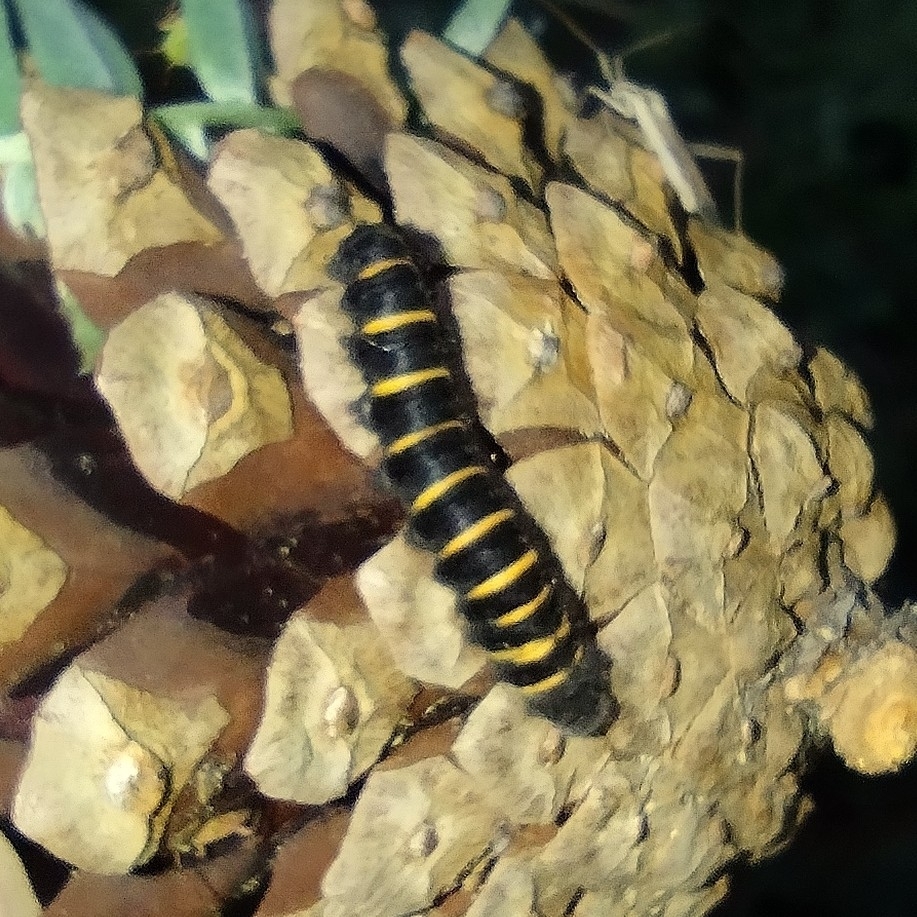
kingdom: Animalia
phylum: Arthropoda
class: Insecta
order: Lepidoptera
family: Lasiocampidae
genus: Macrothylacia
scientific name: Macrothylacia rubi
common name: Fox moth
